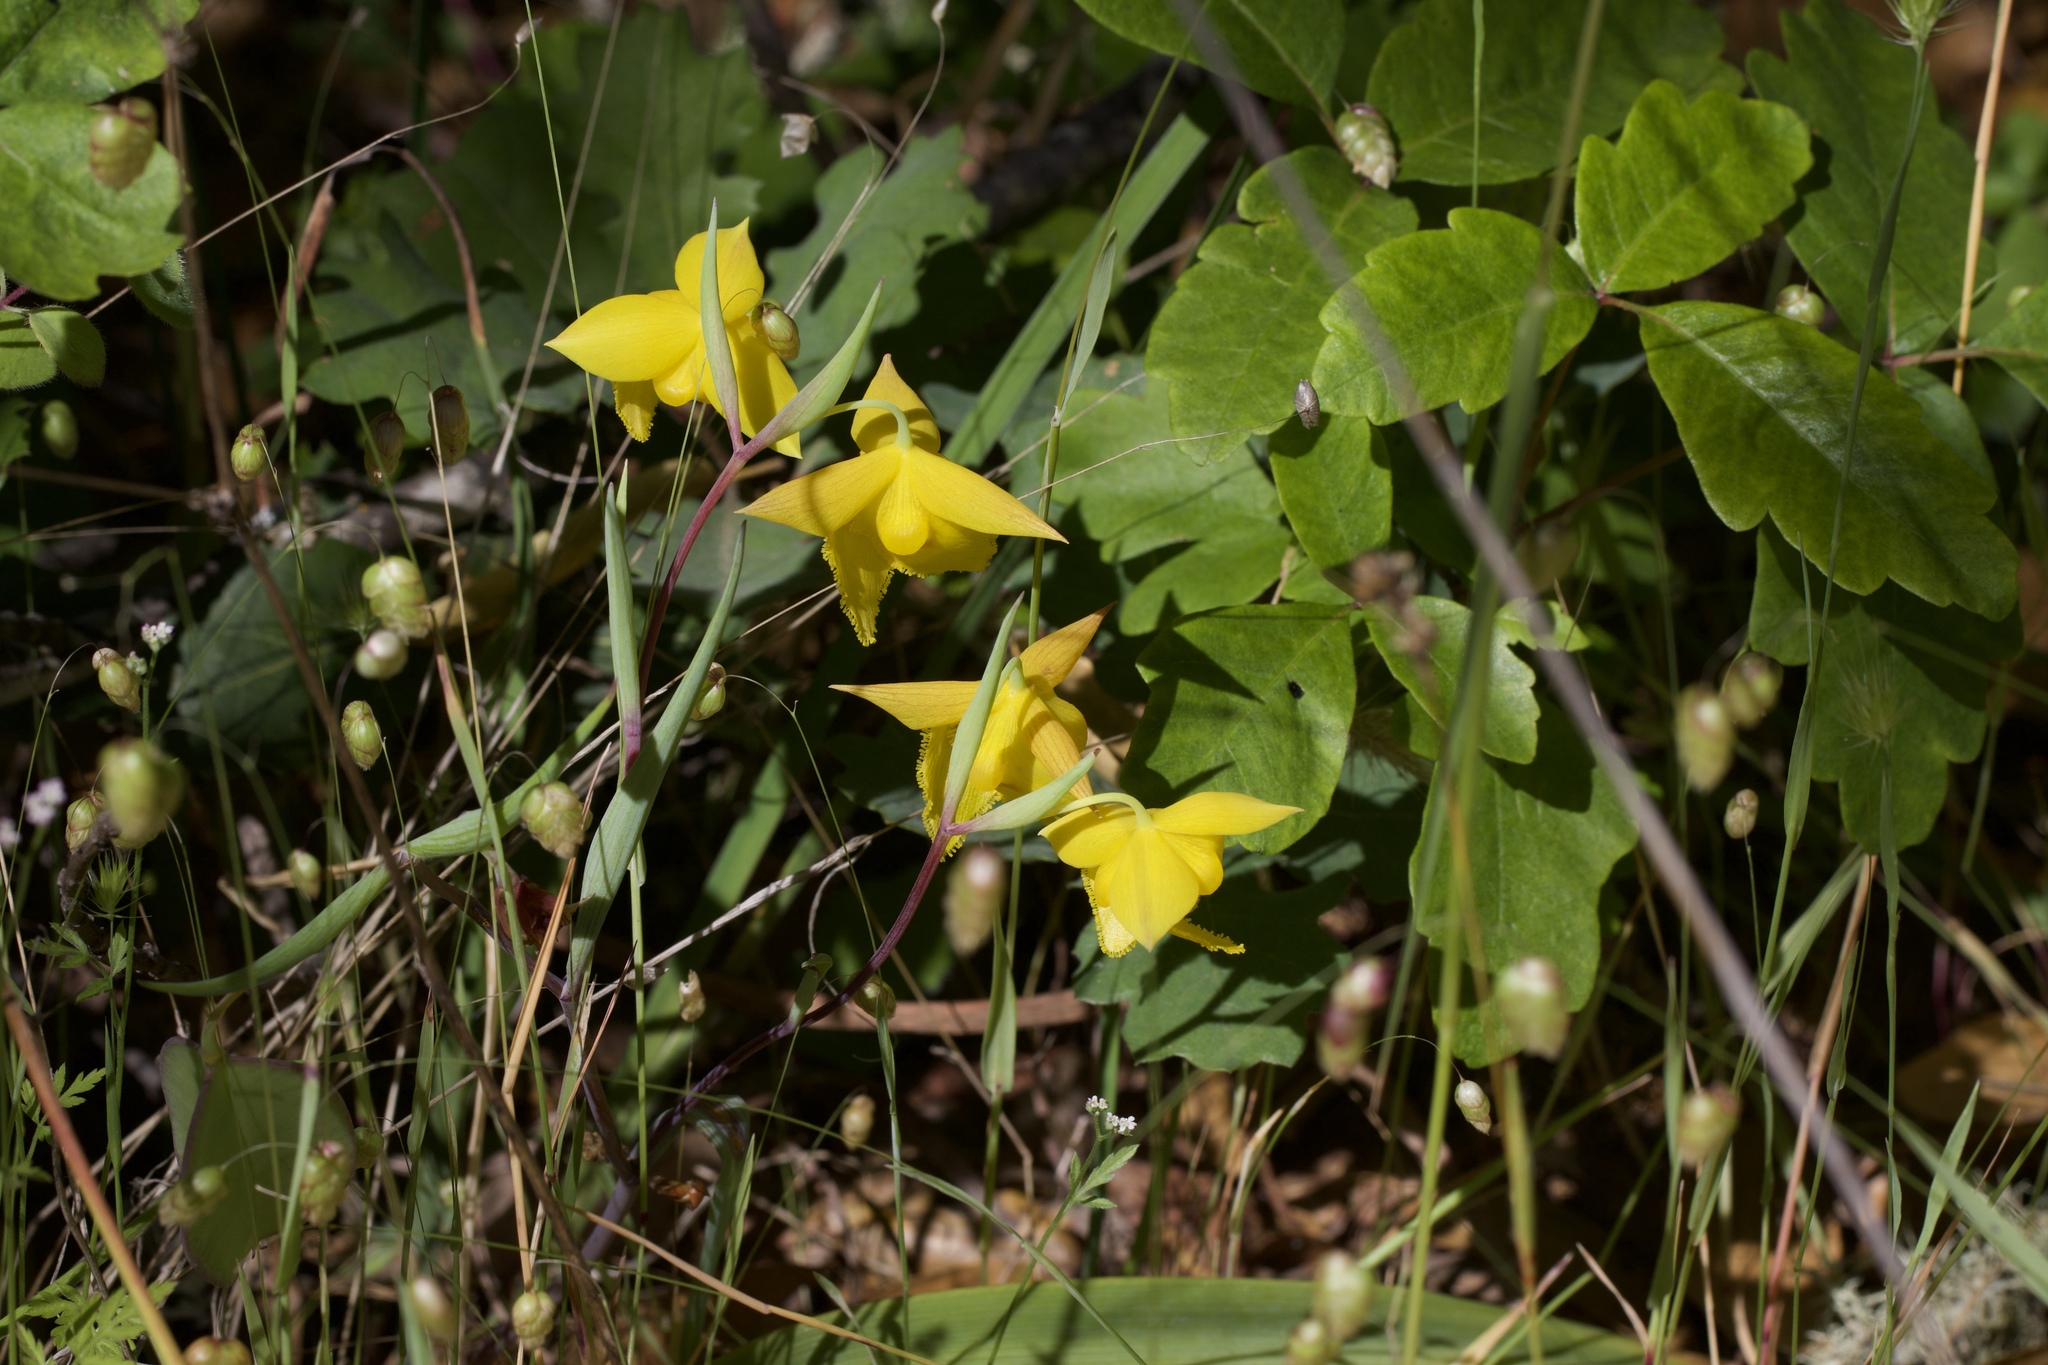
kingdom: Plantae
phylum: Tracheophyta
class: Liliopsida
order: Liliales
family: Liliaceae
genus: Calochortus
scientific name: Calochortus amabilis
